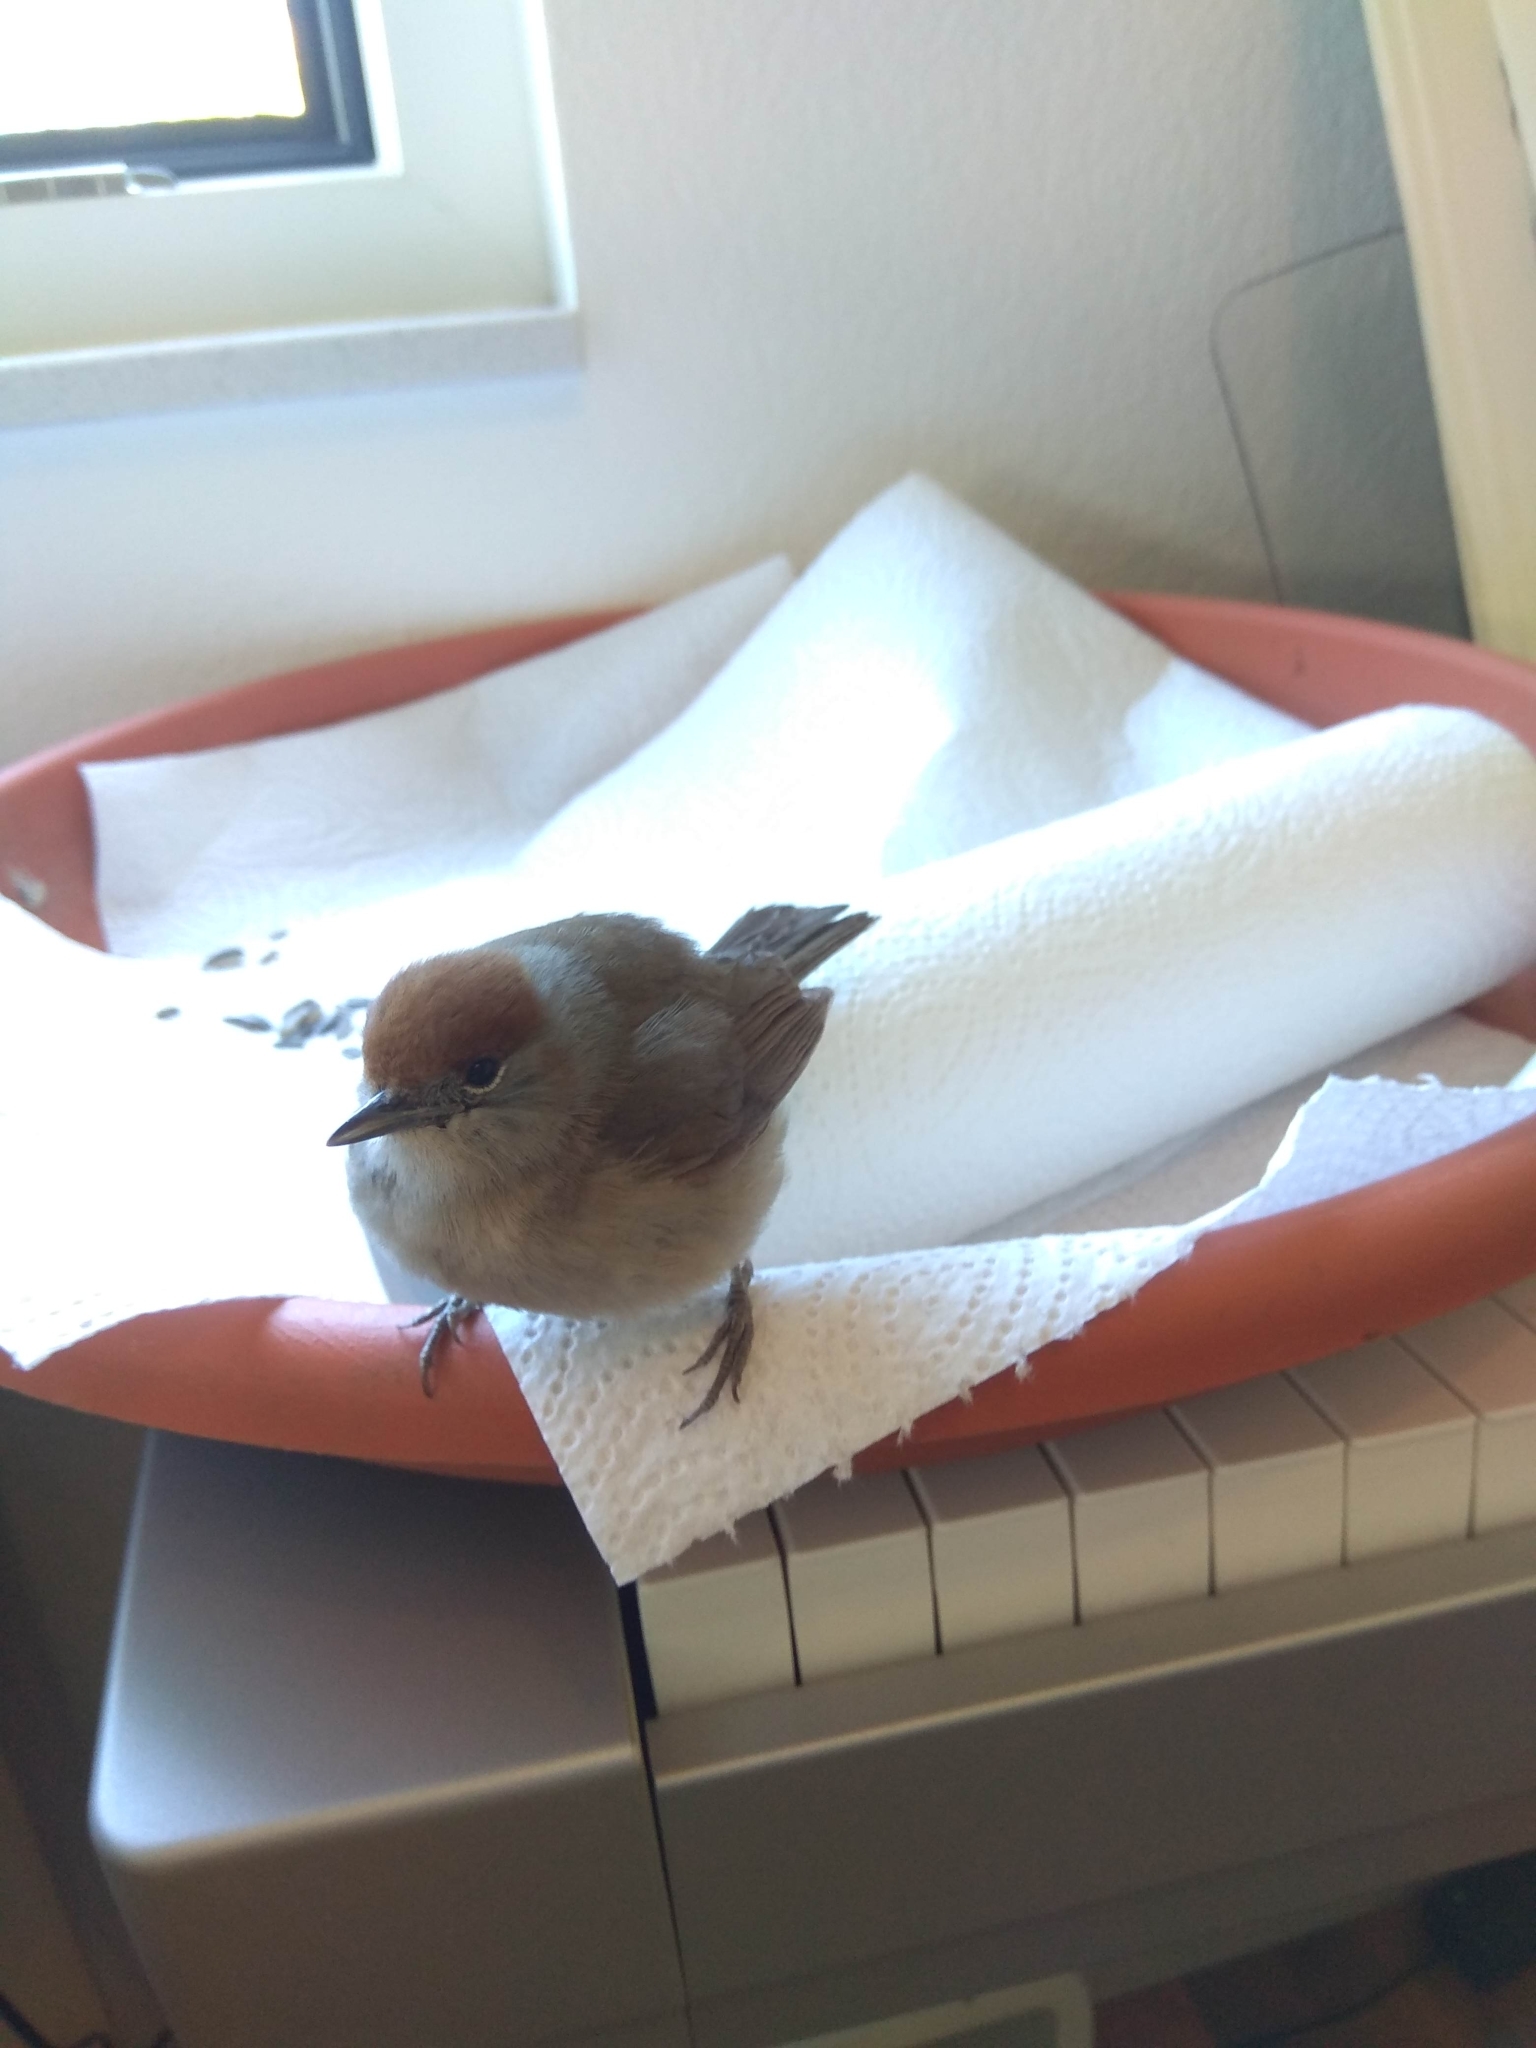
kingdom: Animalia
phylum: Chordata
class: Aves
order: Passeriformes
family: Sylviidae
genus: Sylvia
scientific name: Sylvia atricapilla
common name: Eurasian blackcap
